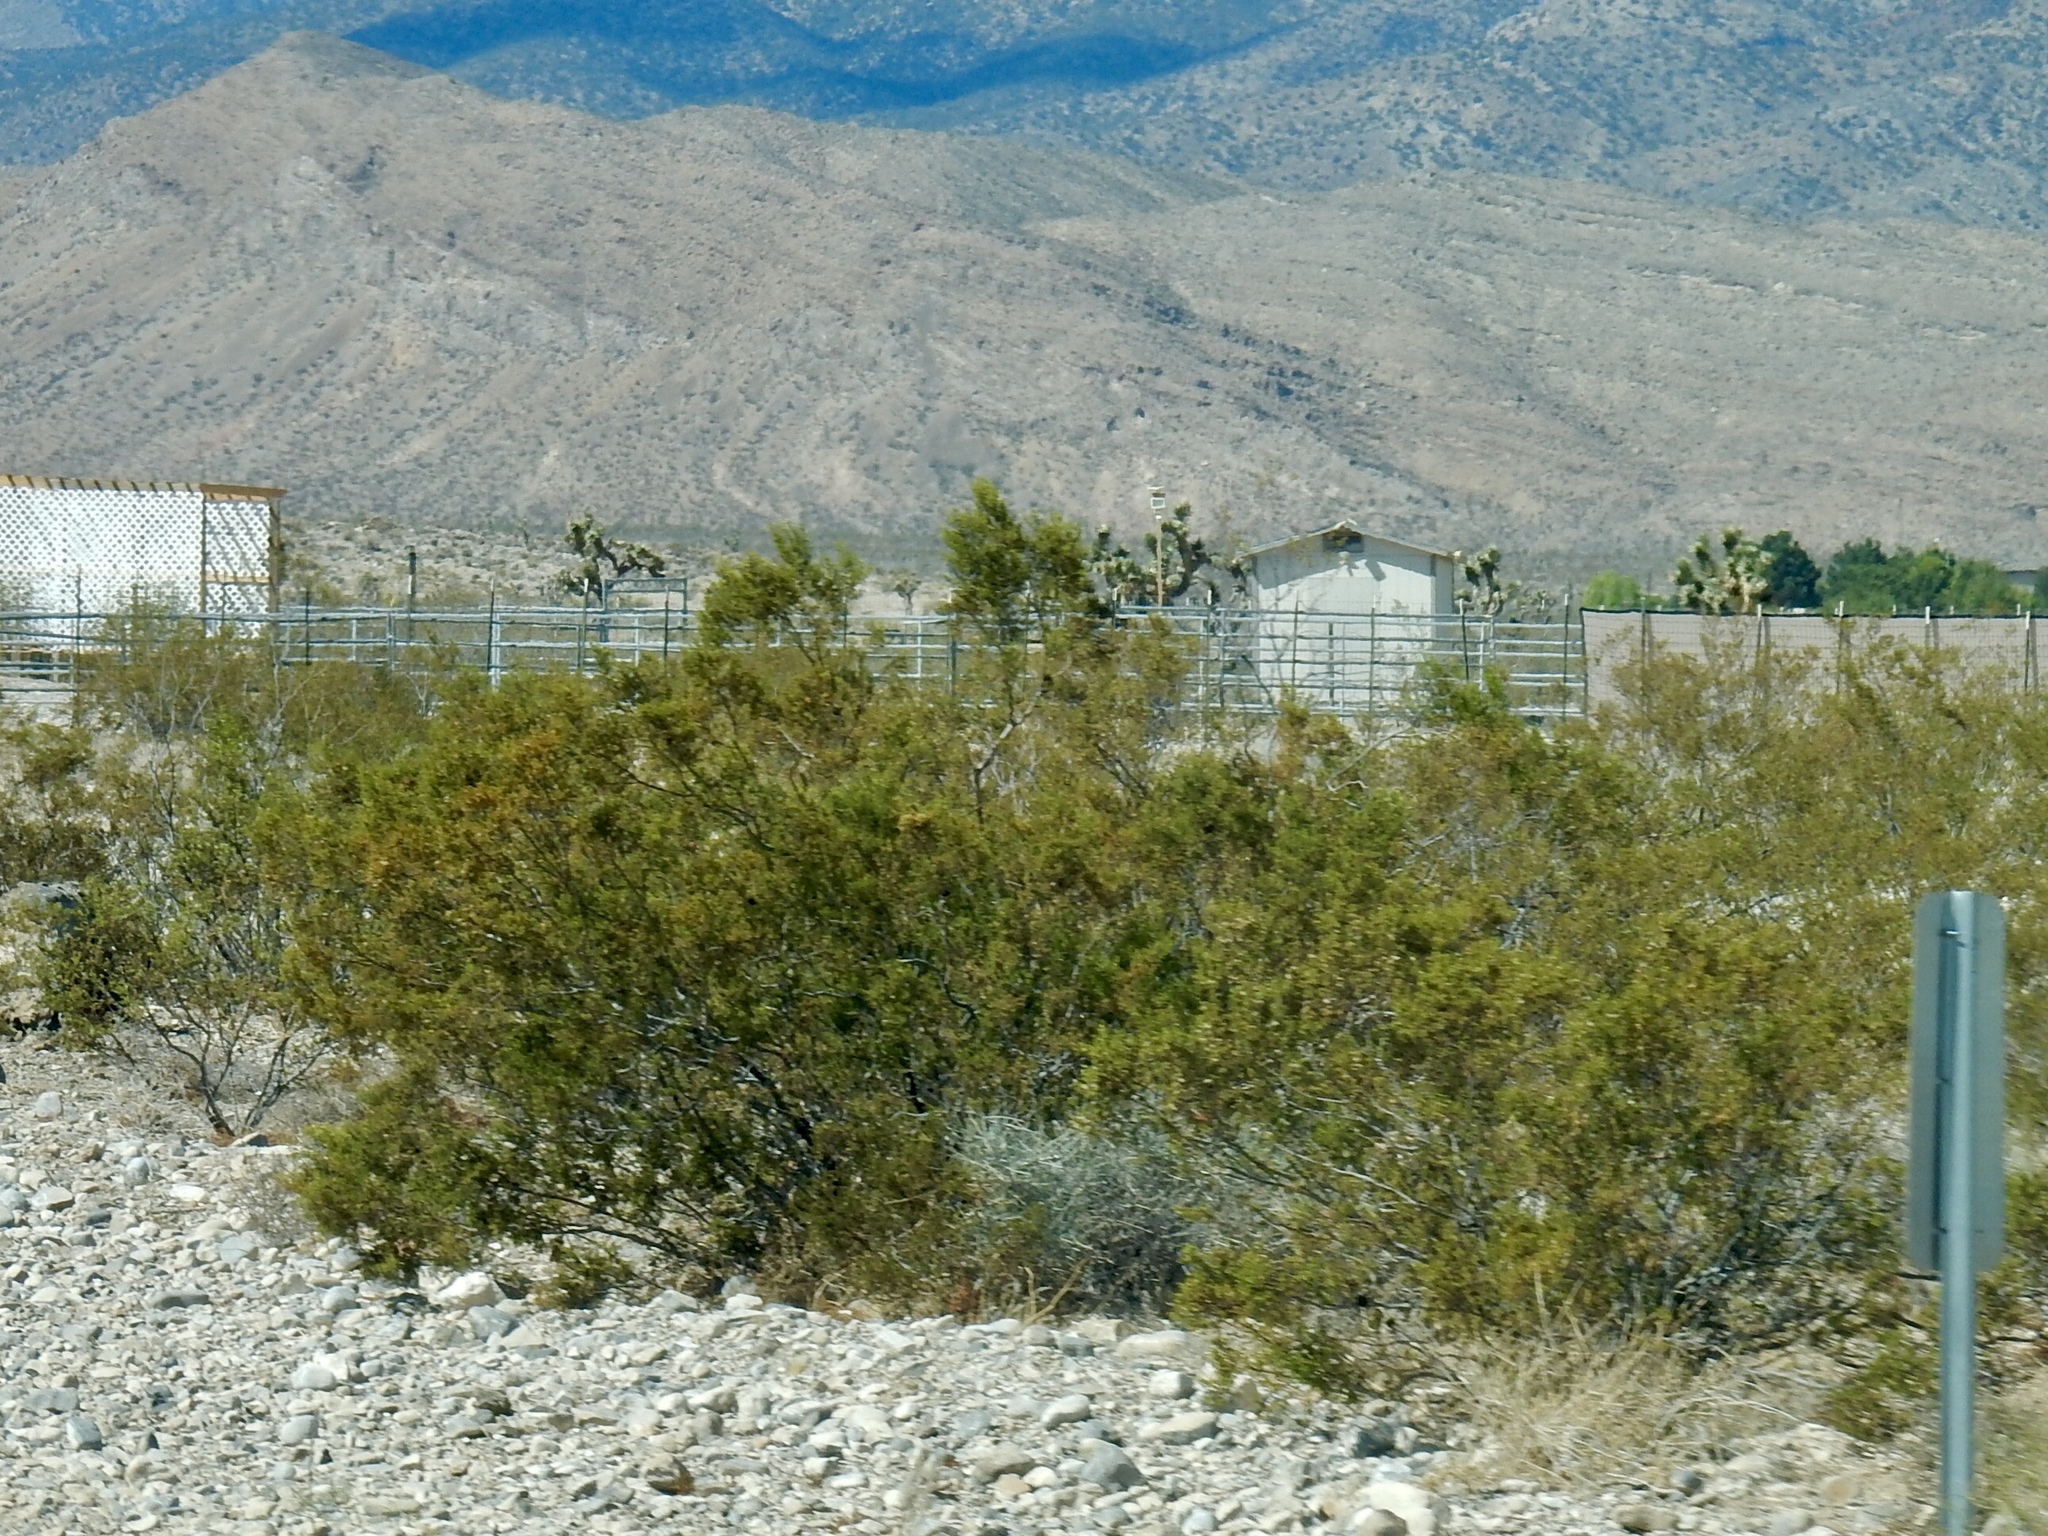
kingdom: Plantae
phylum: Tracheophyta
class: Magnoliopsida
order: Zygophyllales
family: Zygophyllaceae
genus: Larrea
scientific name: Larrea tridentata
